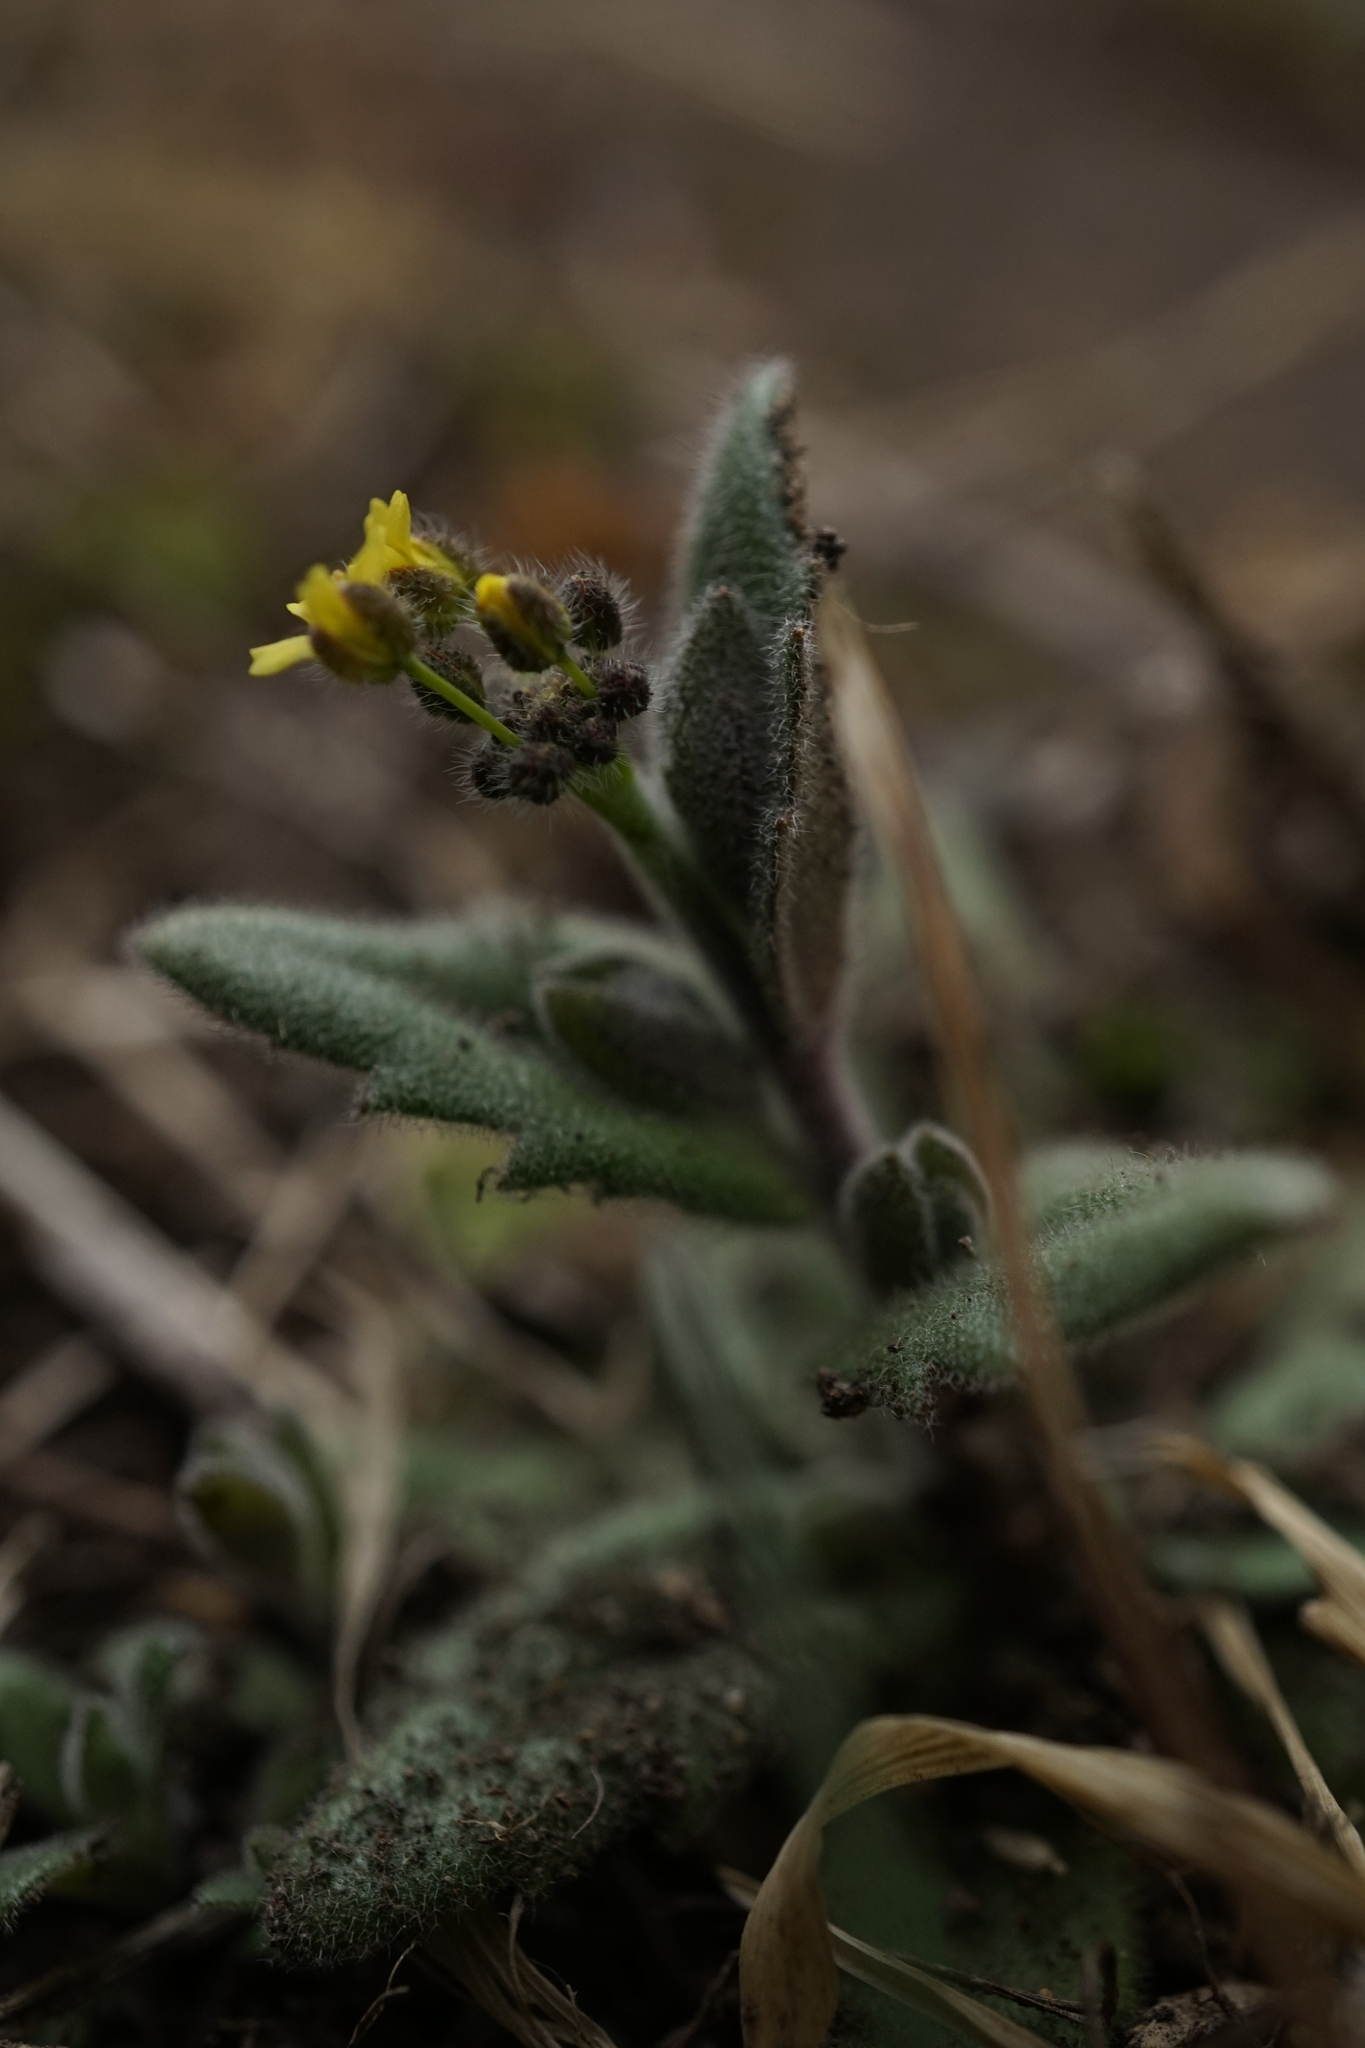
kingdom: Plantae
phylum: Tracheophyta
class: Magnoliopsida
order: Brassicales
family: Brassicaceae
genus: Draba
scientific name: Draba nemorosa
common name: Wood whitlow-grass
